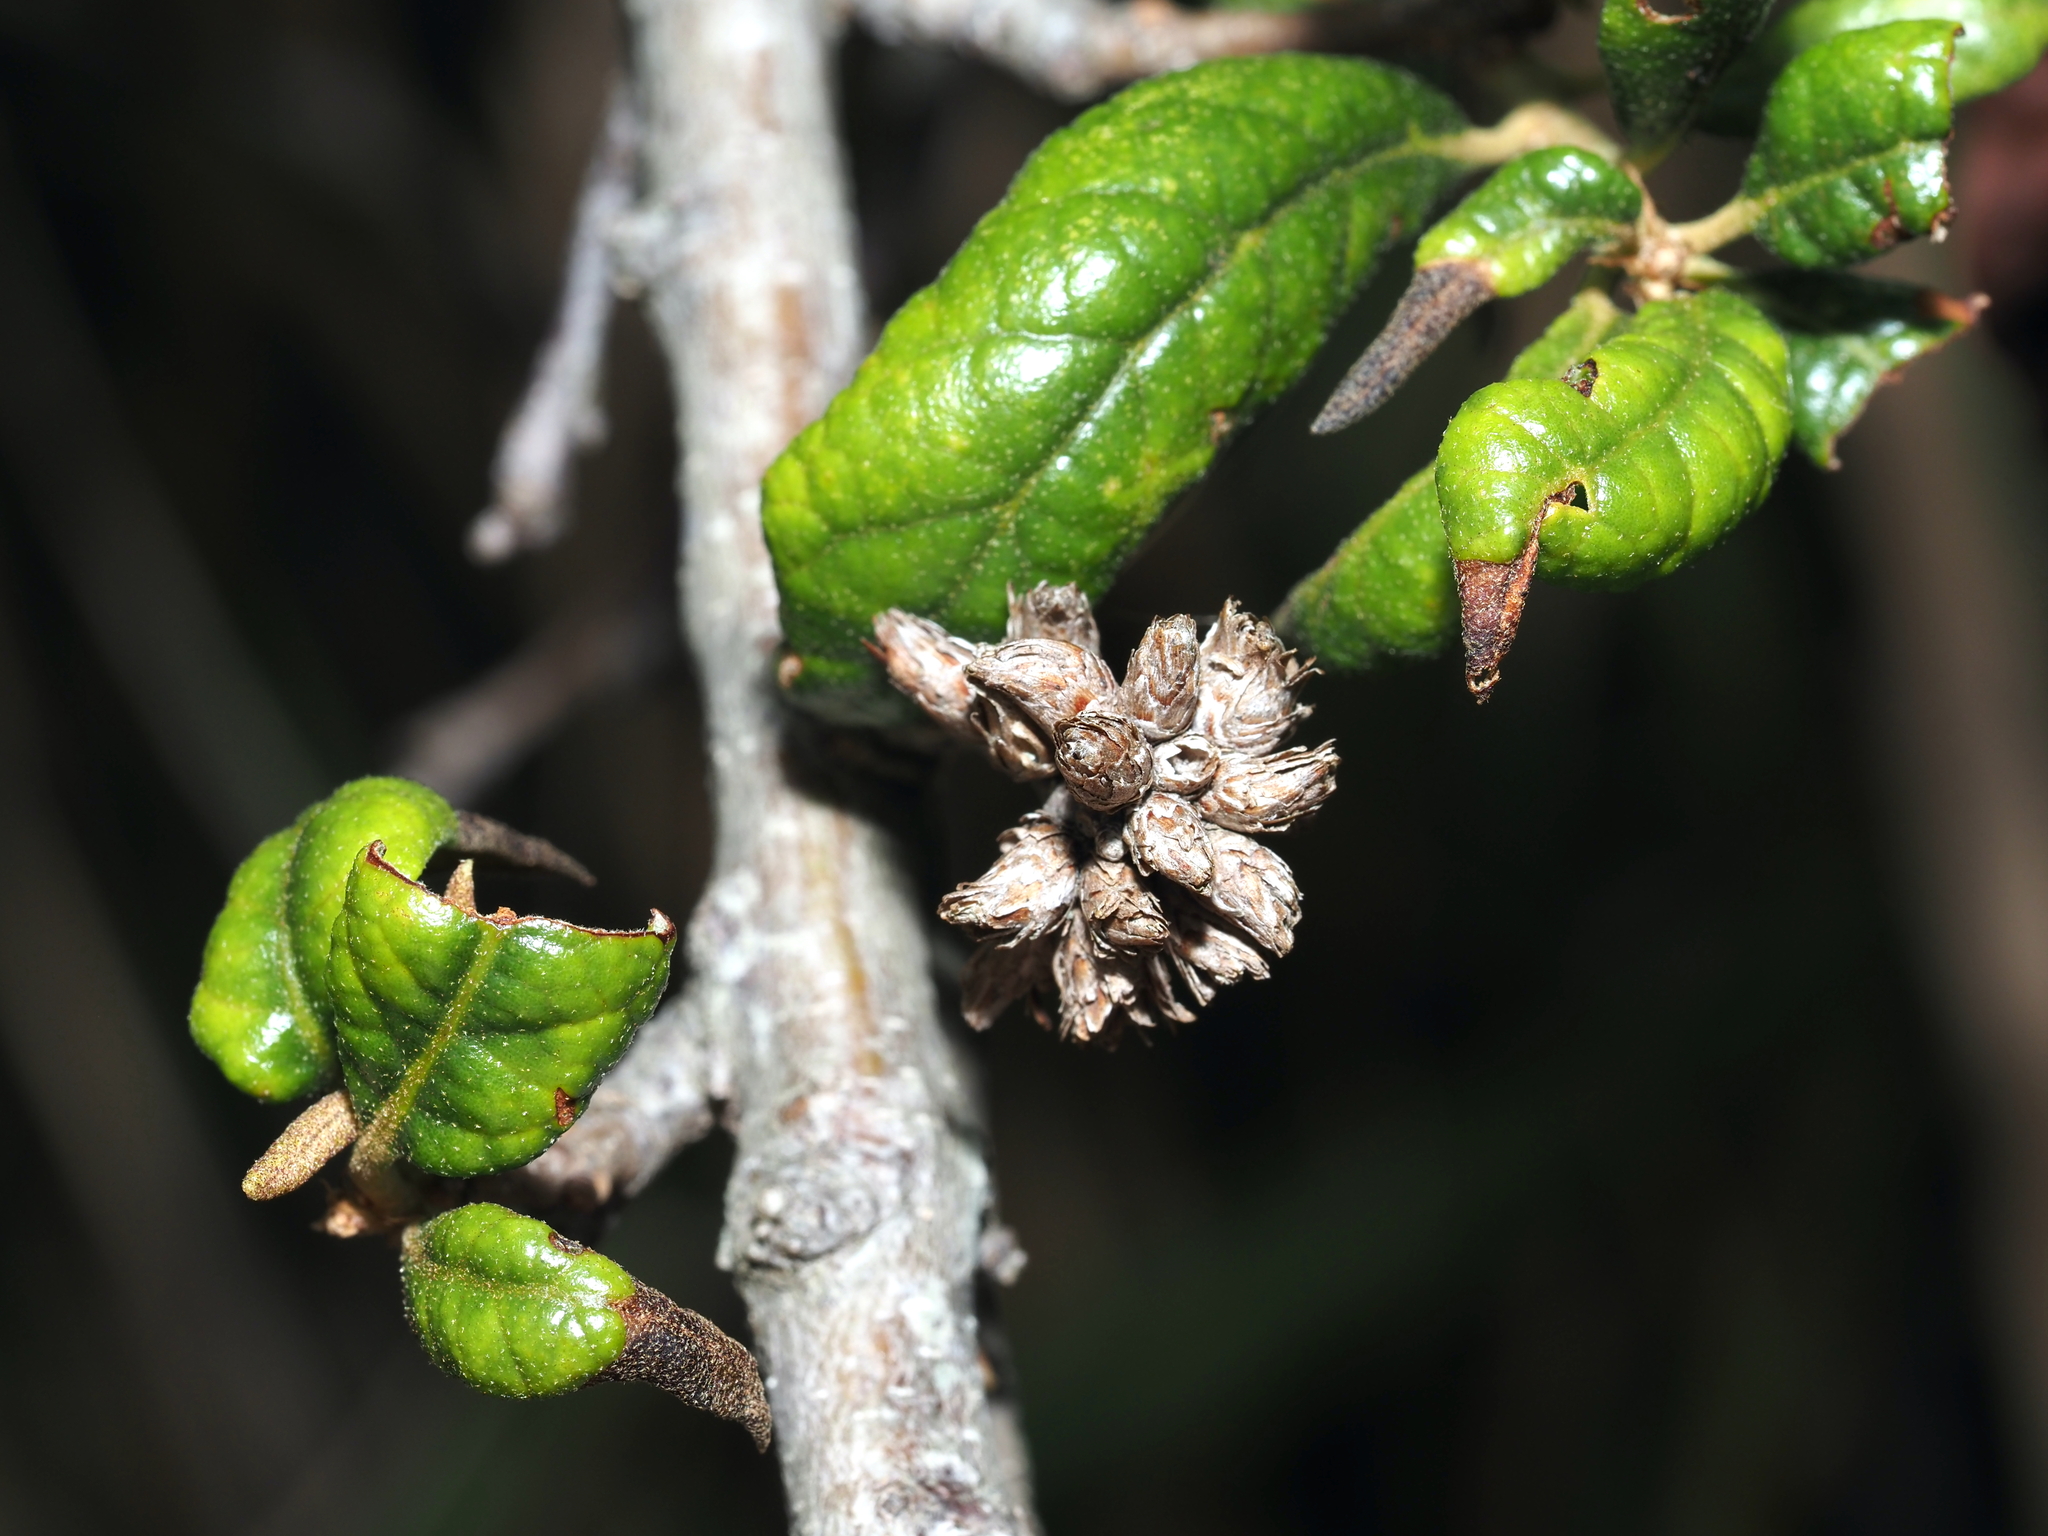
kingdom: Animalia
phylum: Arthropoda
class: Insecta
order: Diptera
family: Cecidomyiidae
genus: Arnoldiola
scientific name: Arnoldiola atra
